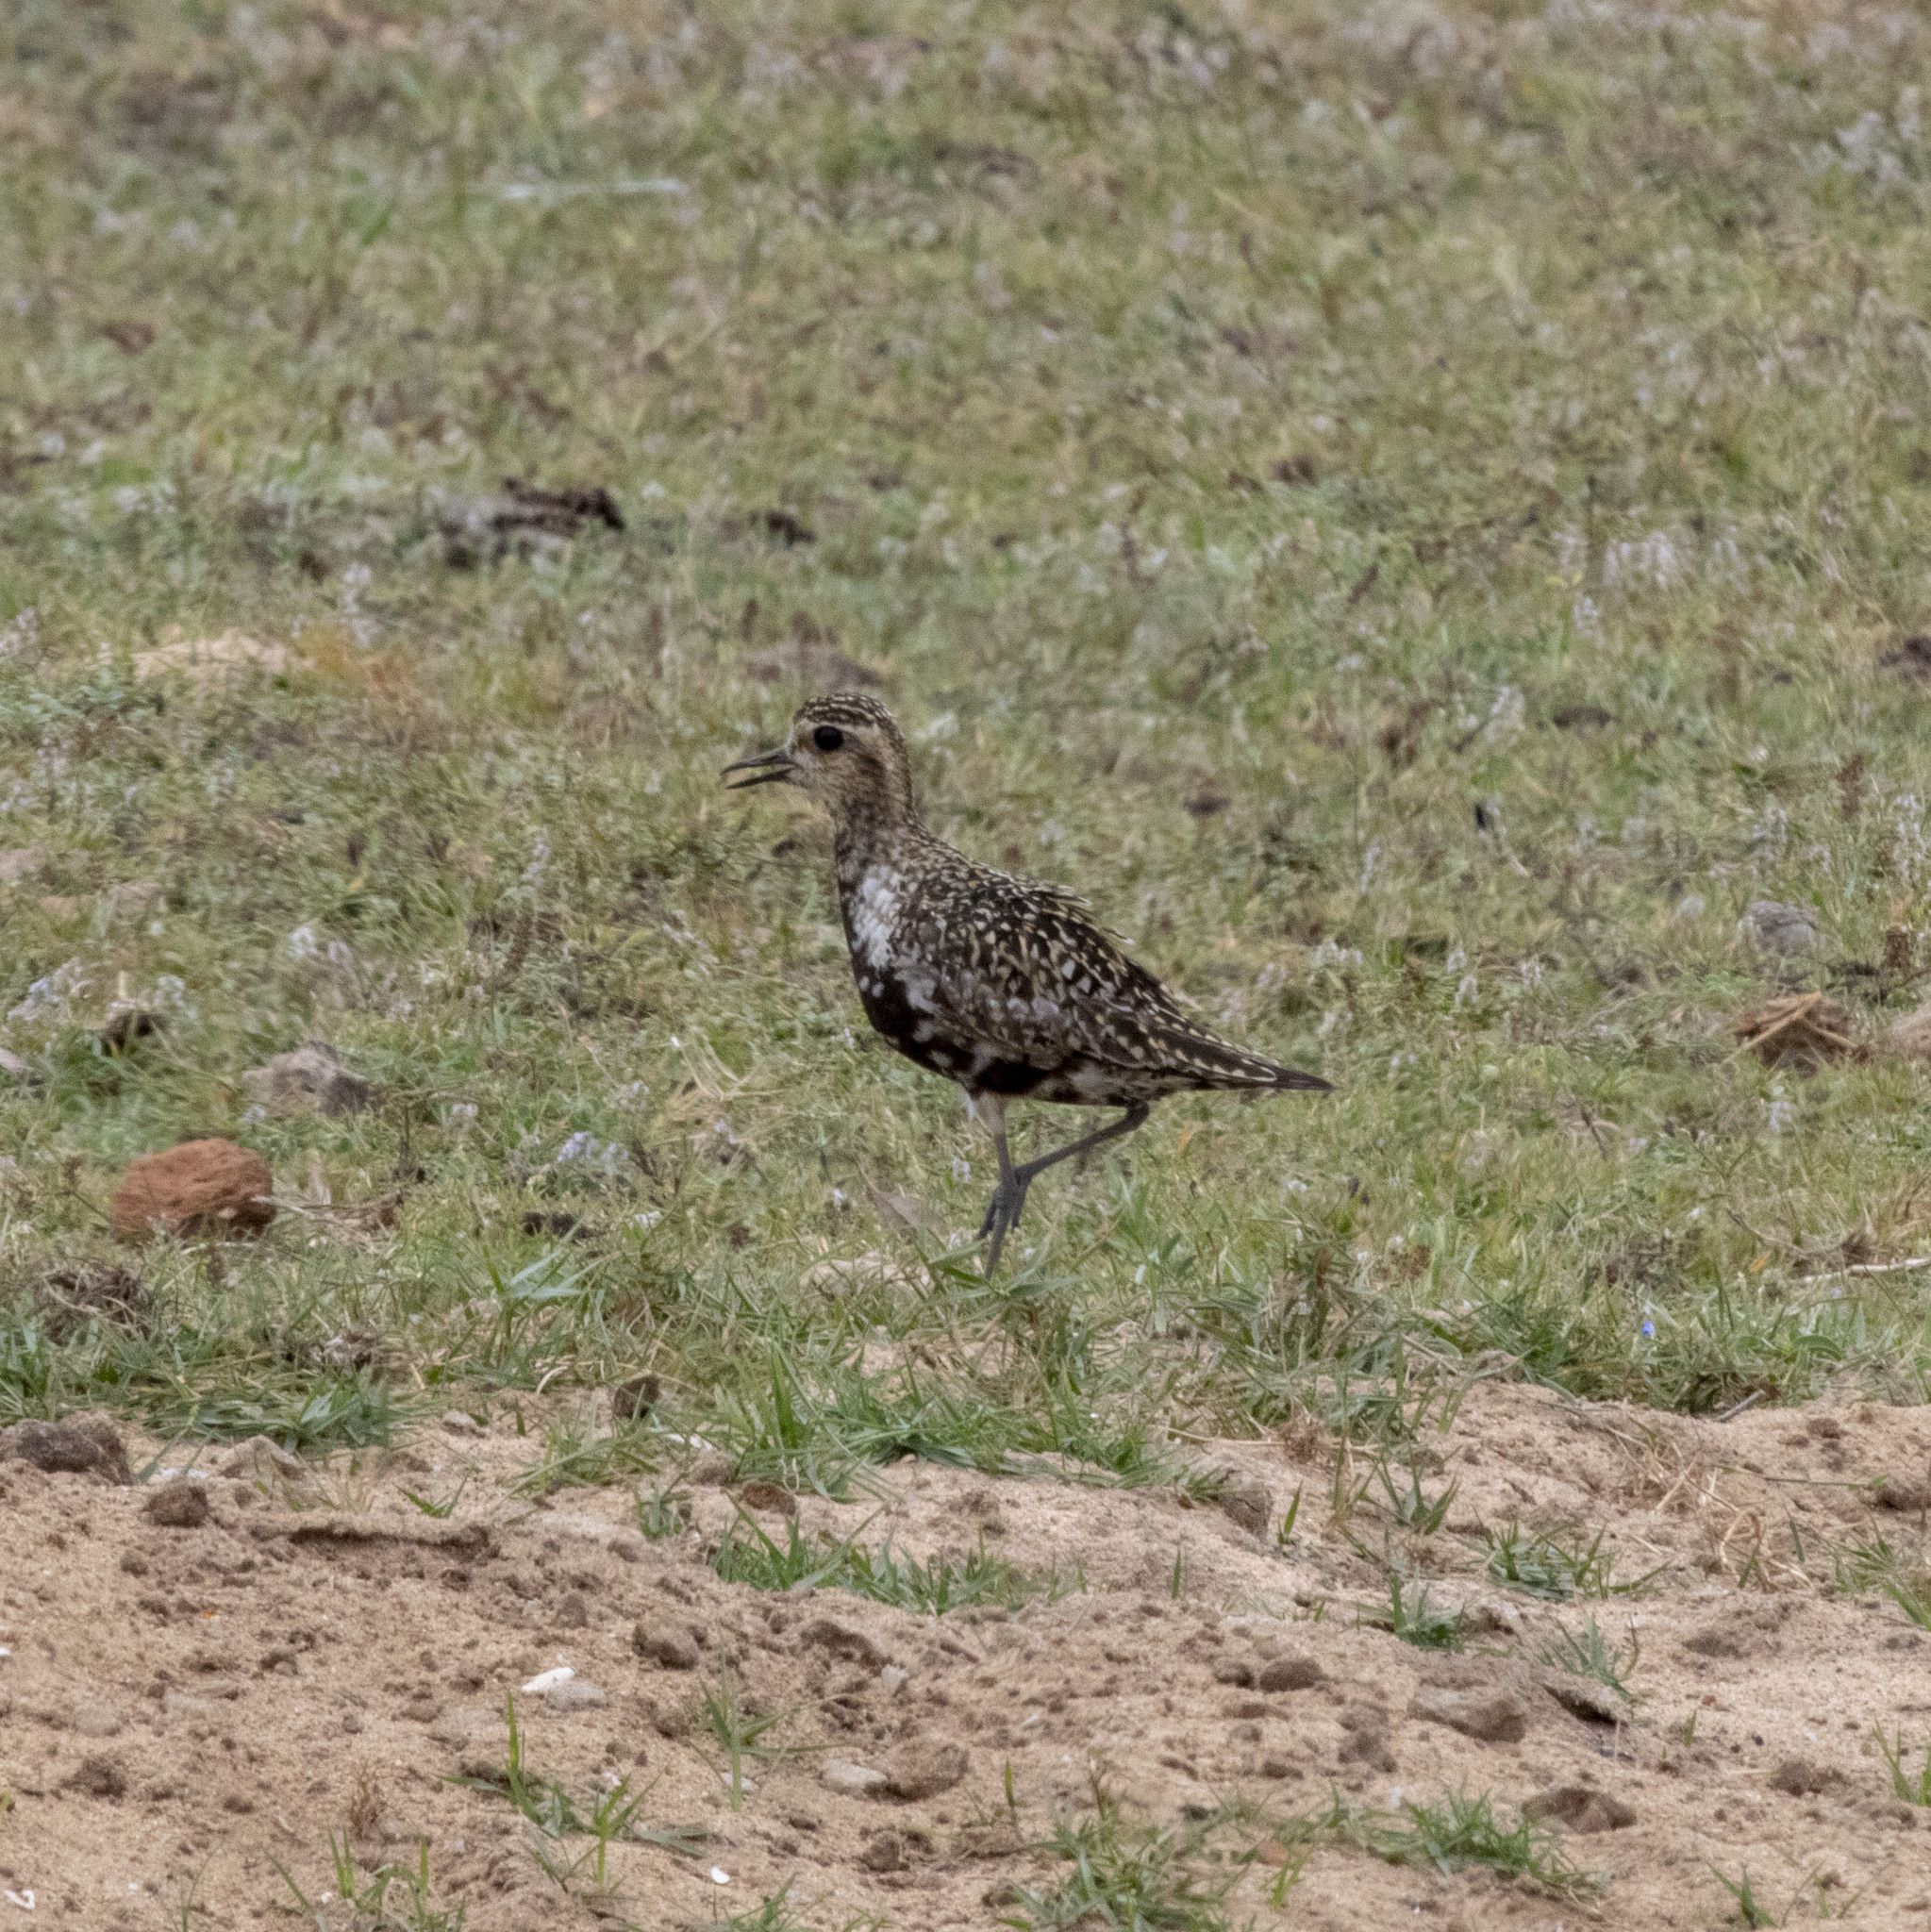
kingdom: Animalia
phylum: Chordata
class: Aves
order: Charadriiformes
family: Charadriidae
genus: Pluvialis
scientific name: Pluvialis fulva
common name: Pacific golden plover
